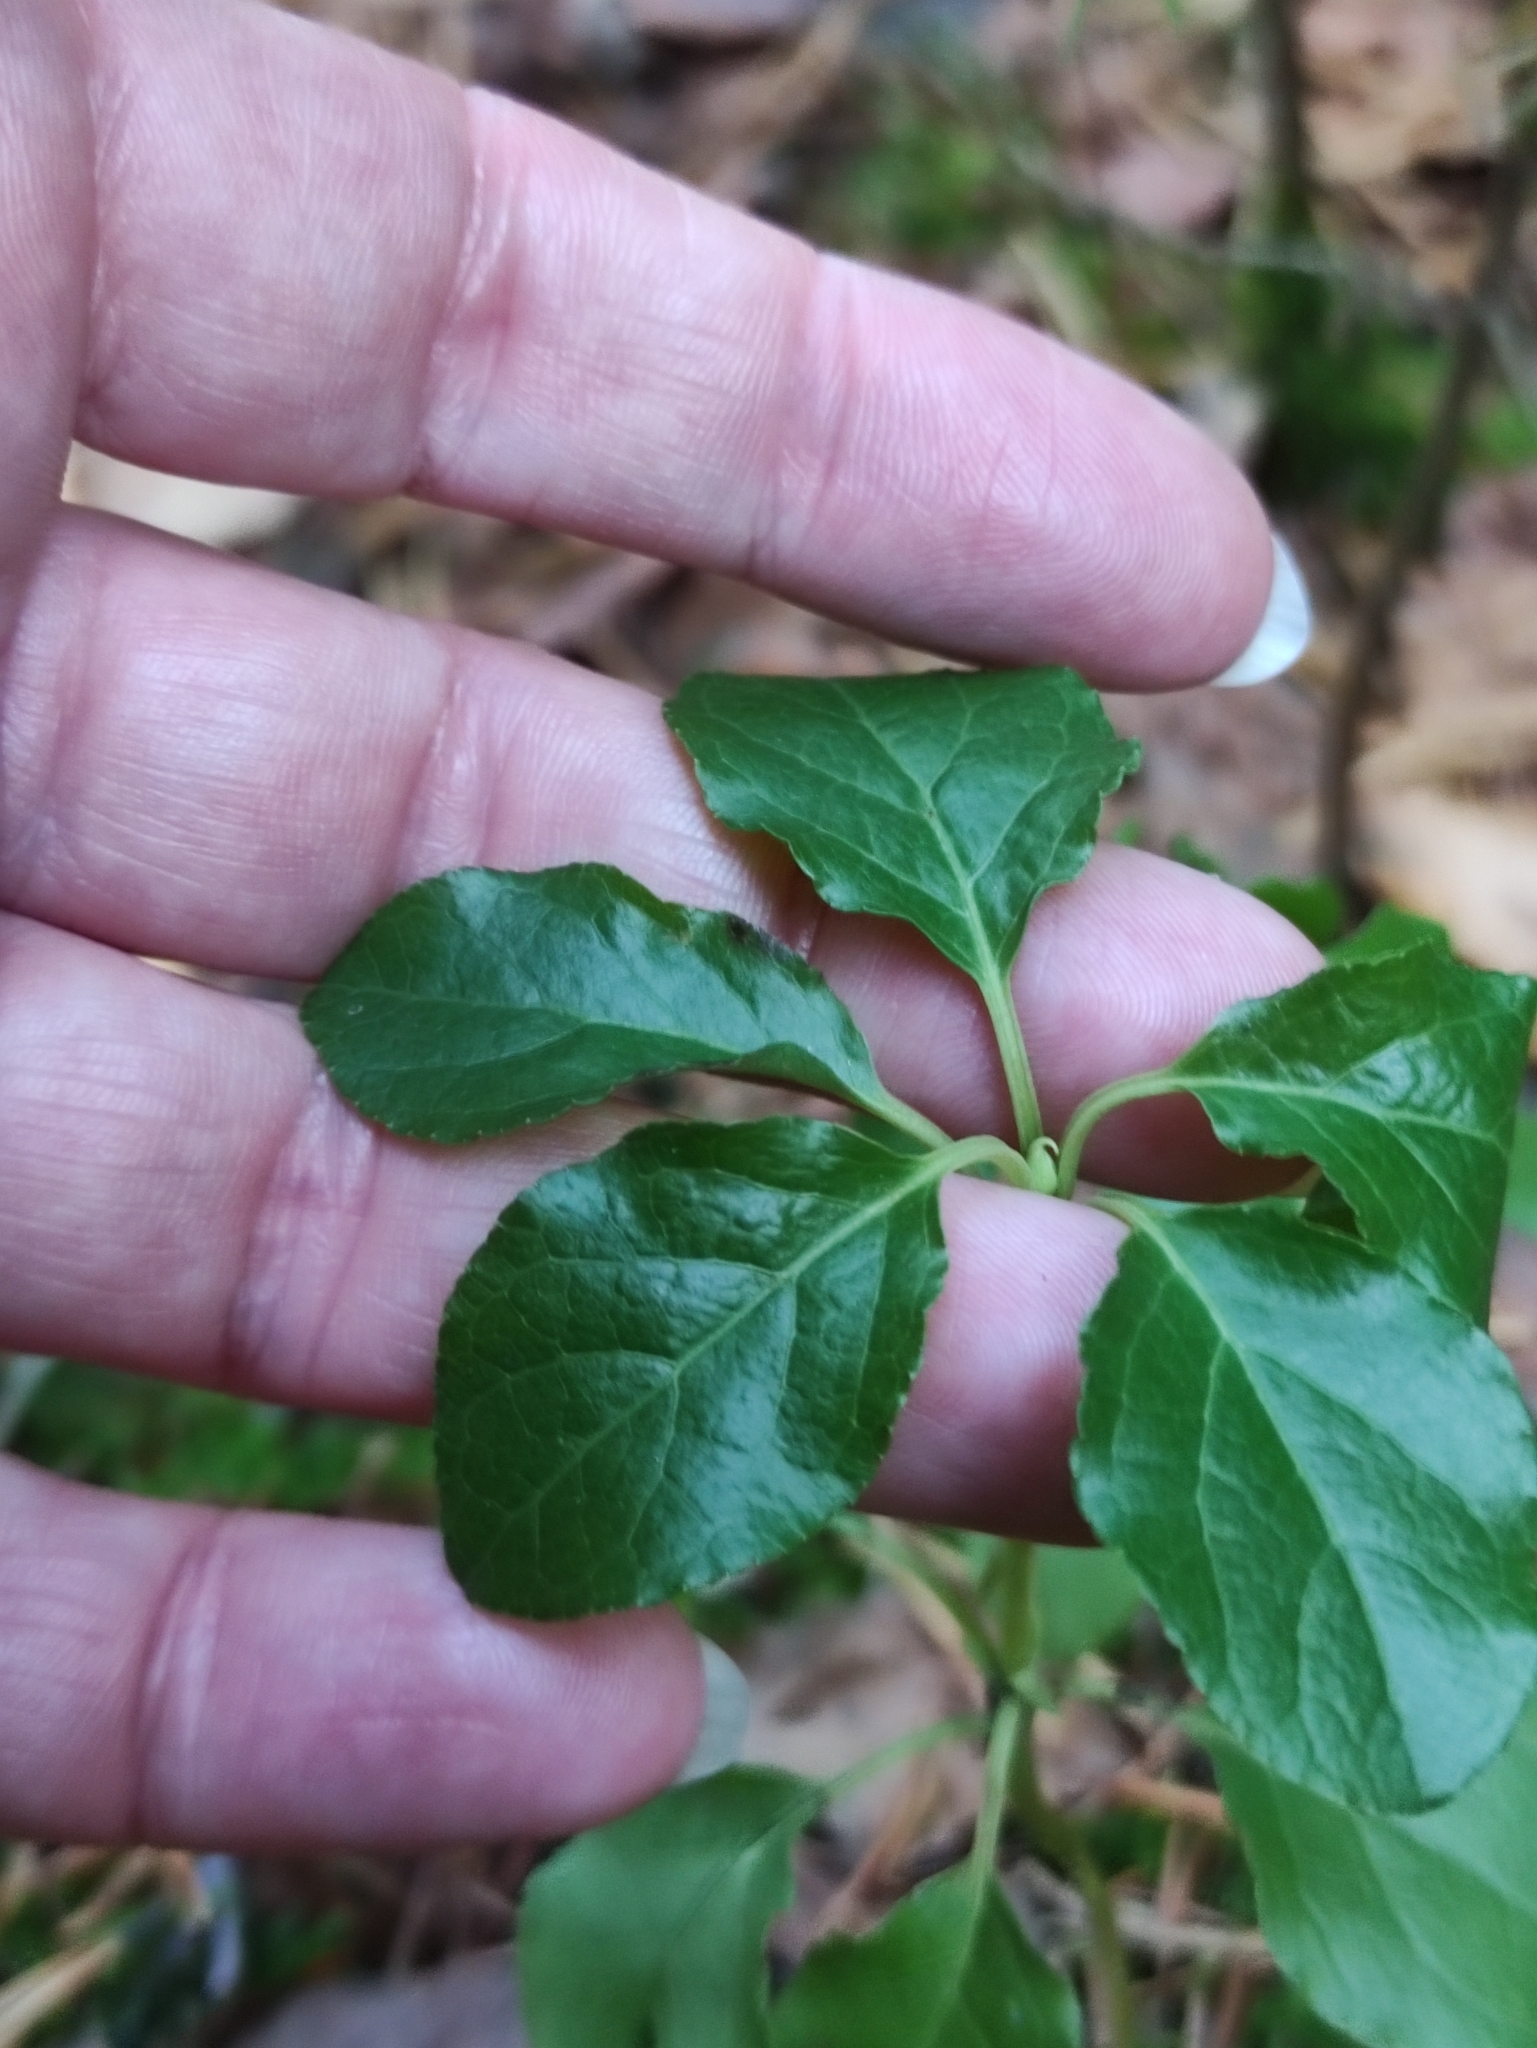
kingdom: Plantae
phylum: Tracheophyta
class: Magnoliopsida
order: Ericales
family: Ericaceae
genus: Orthilia
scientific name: Orthilia secunda
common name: One-sided orthilia
